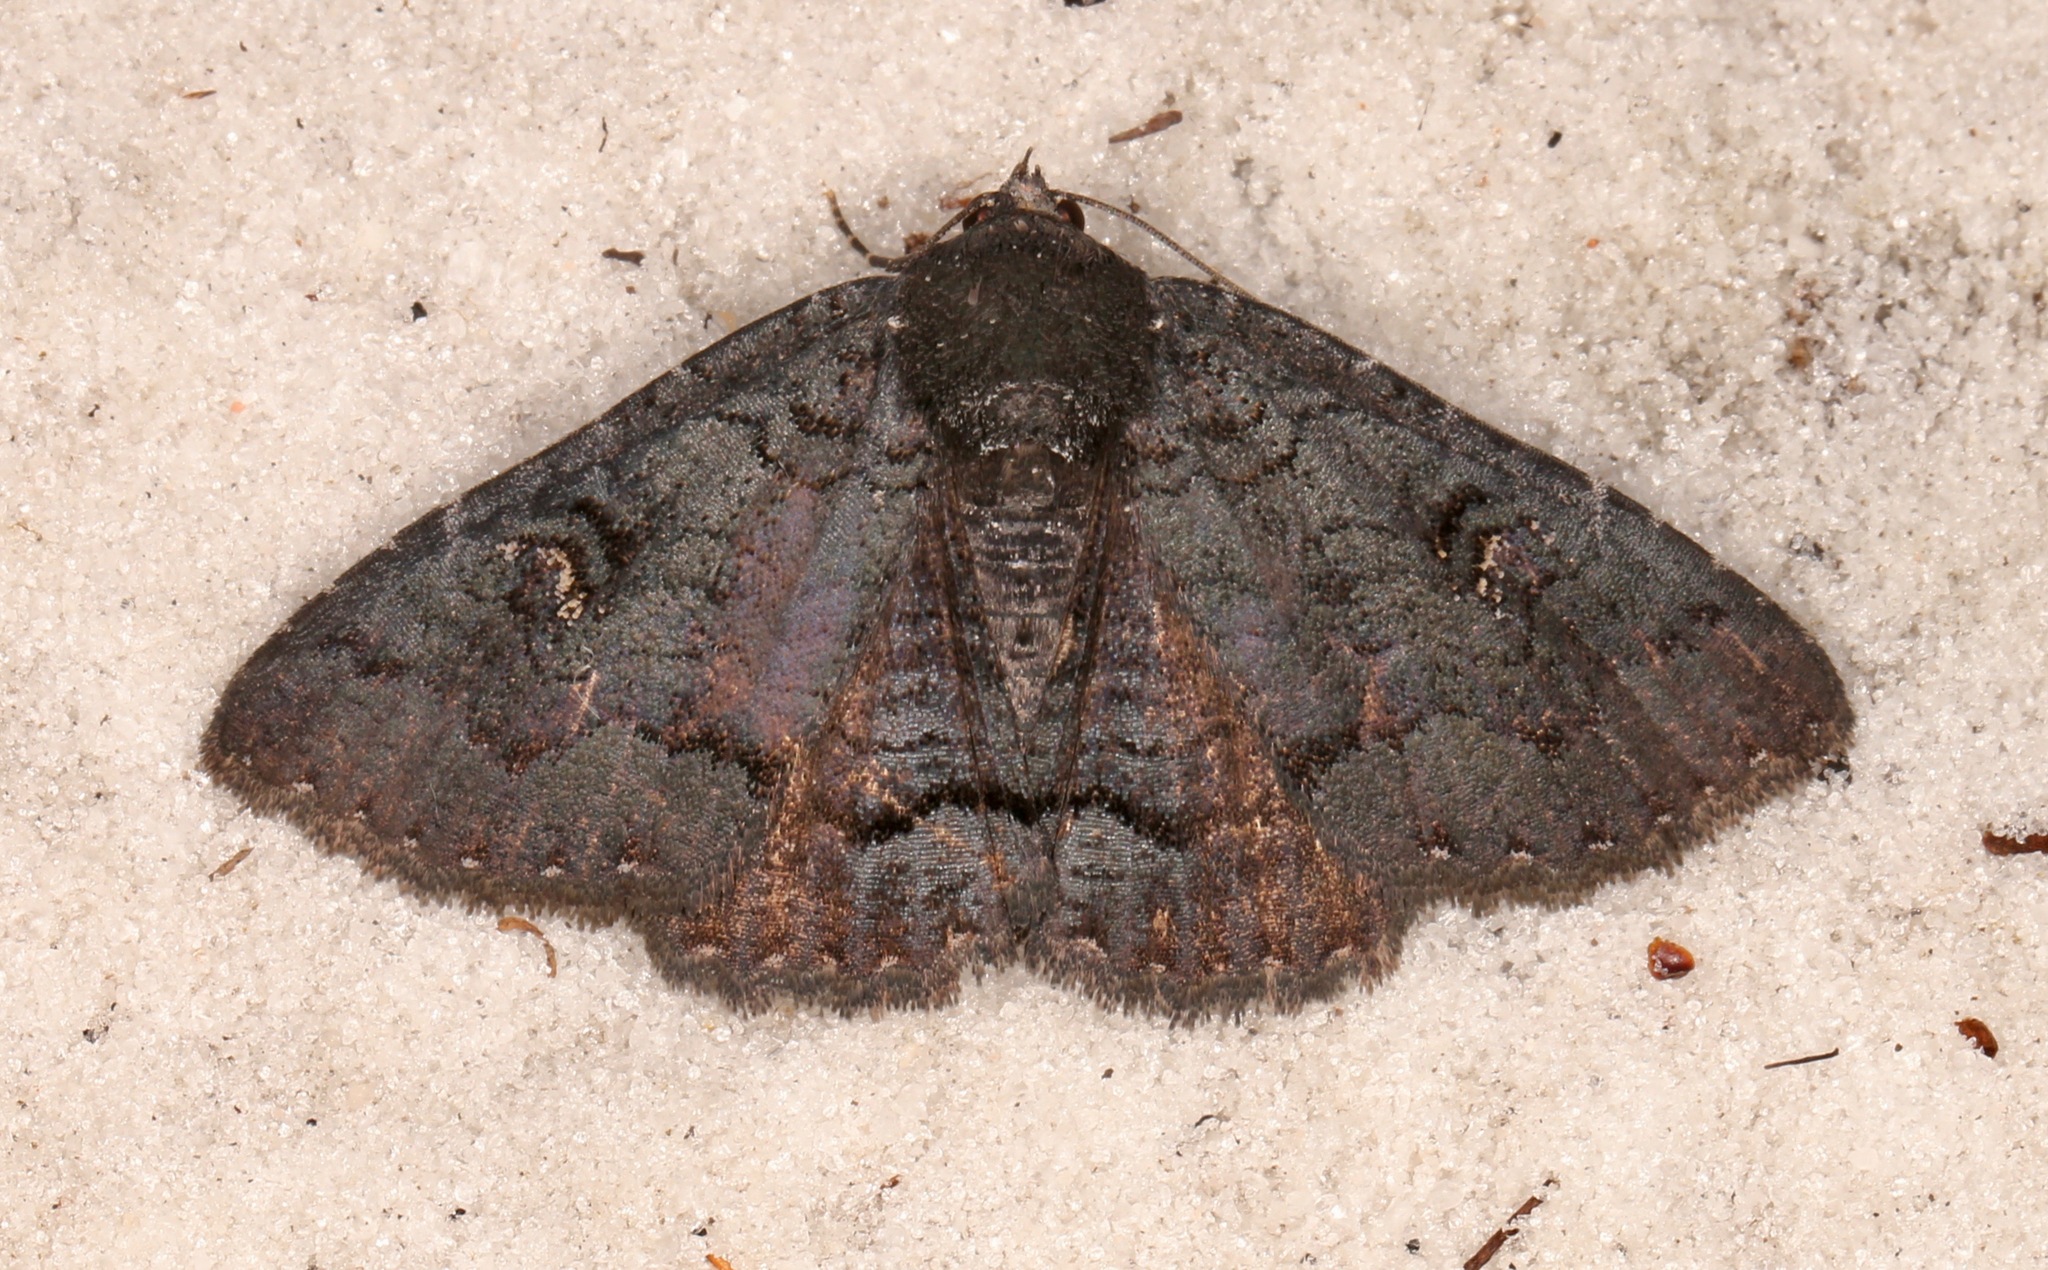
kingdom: Animalia
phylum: Arthropoda
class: Insecta
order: Lepidoptera
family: Erebidae
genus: Zale
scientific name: Zale coracias
